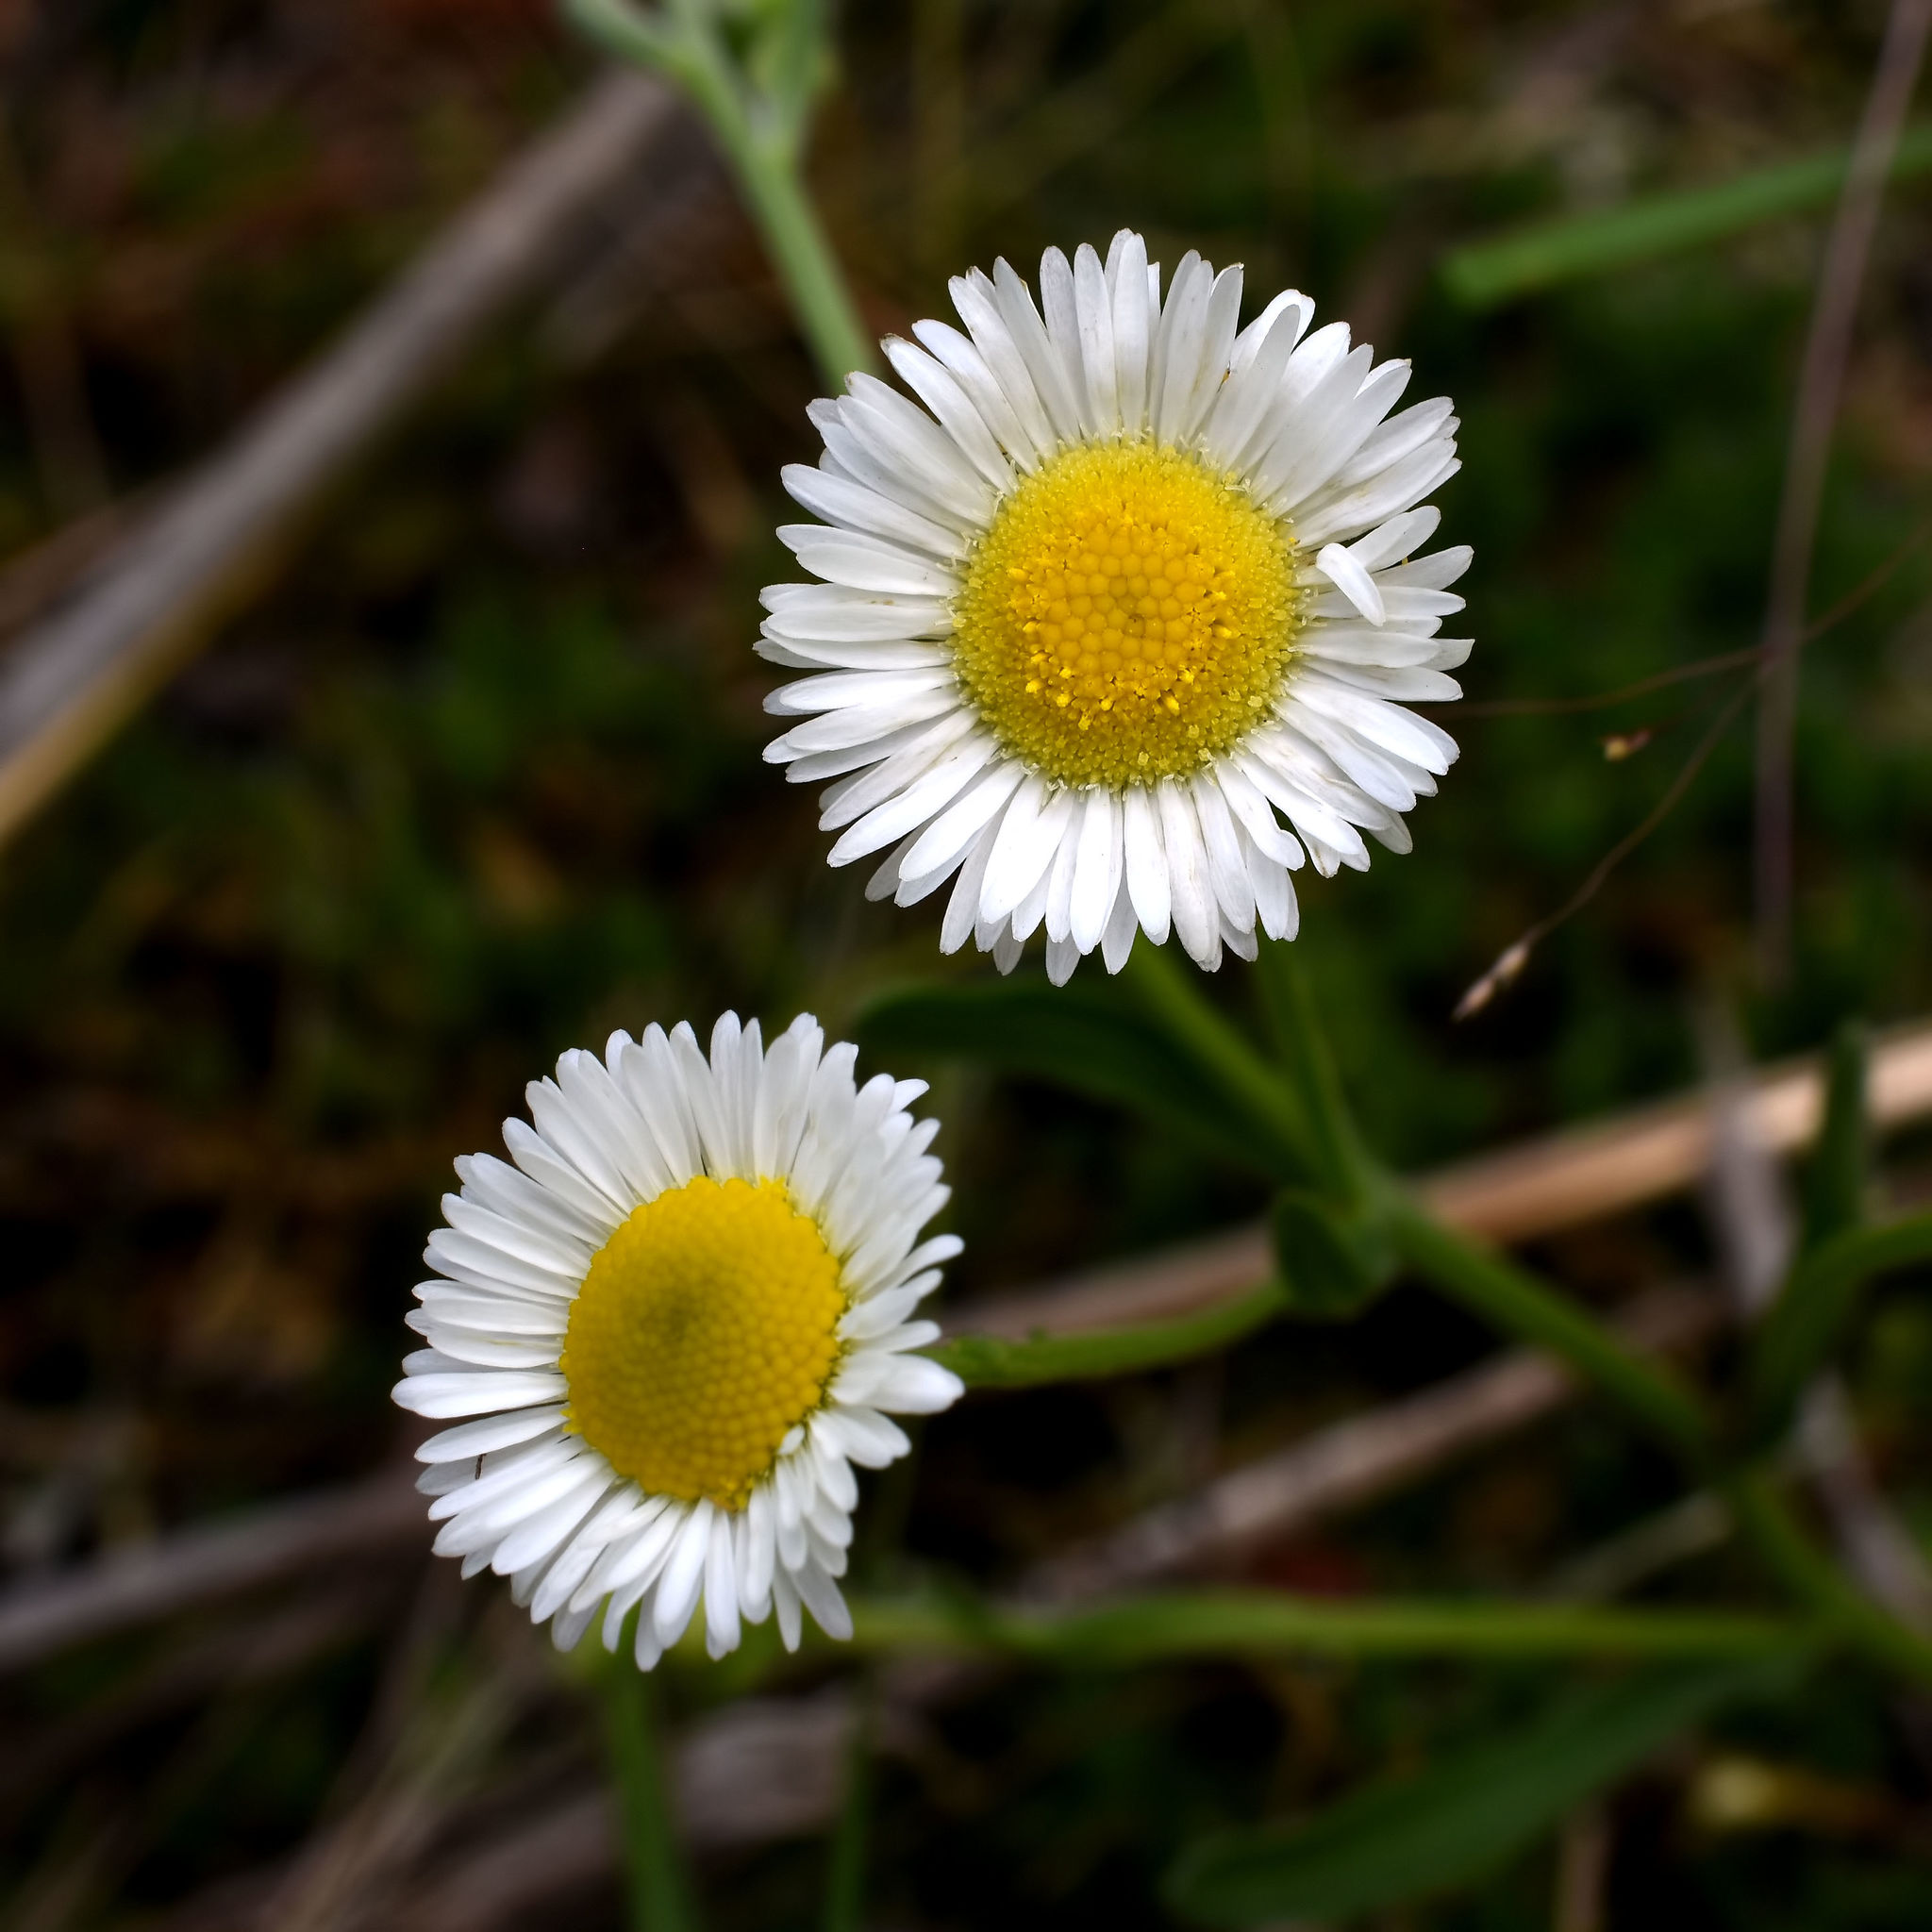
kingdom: Plantae
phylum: Tracheophyta
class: Magnoliopsida
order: Asterales
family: Asteraceae
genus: Erigeron
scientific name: Erigeron strigosus
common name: Common eastern fleabane
